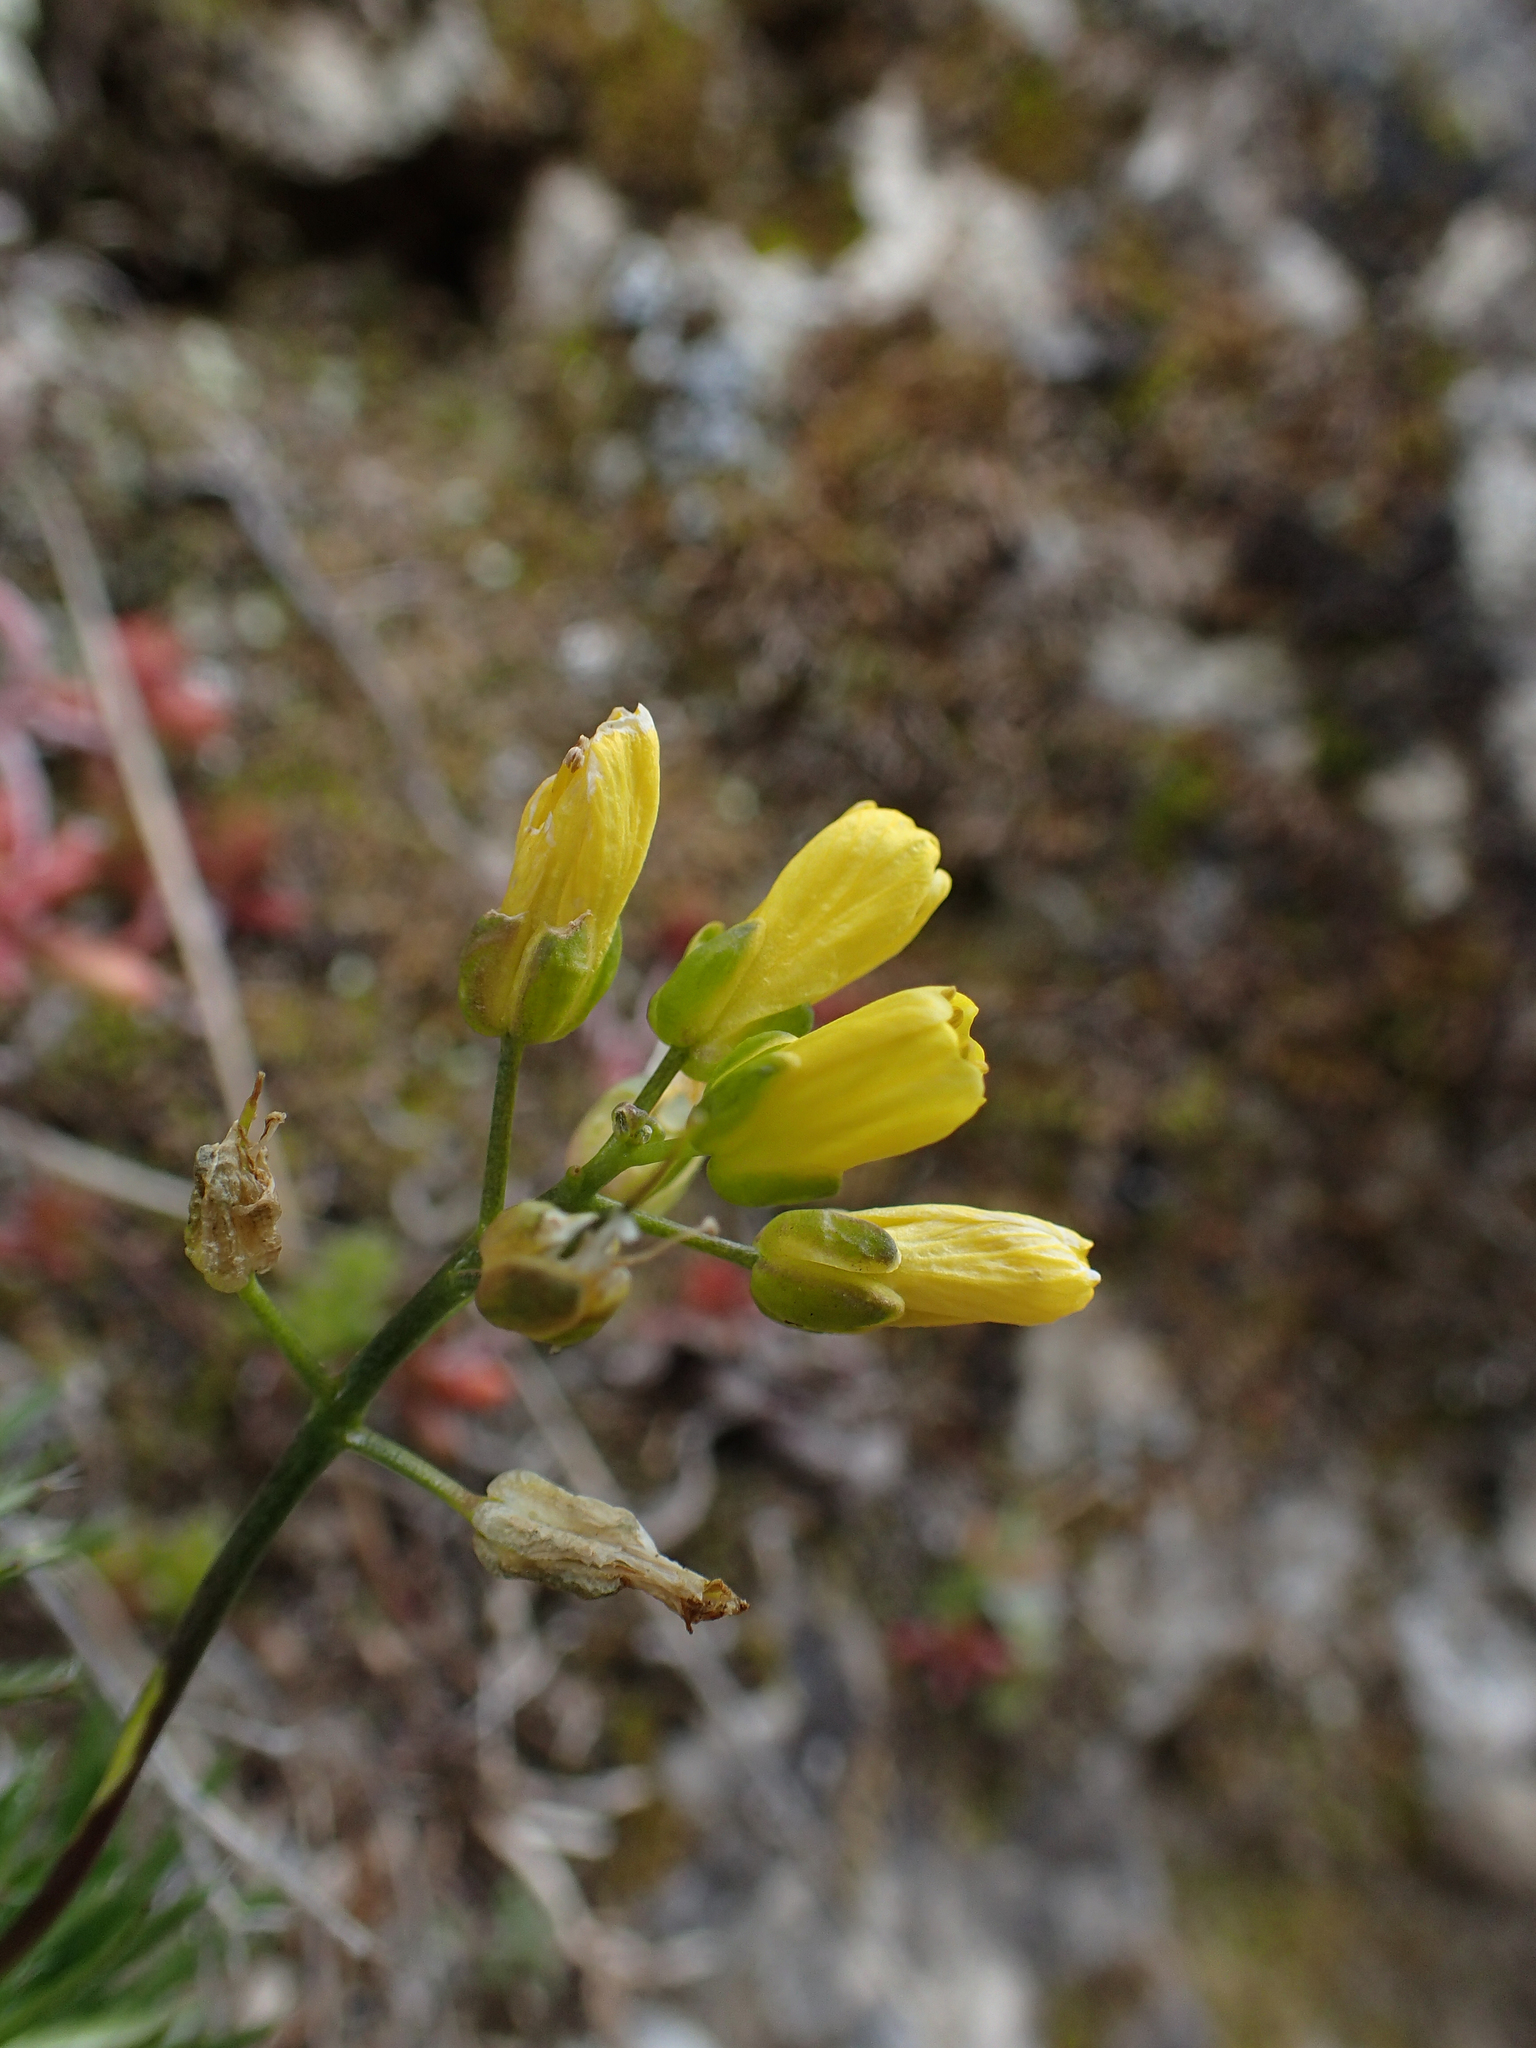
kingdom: Plantae
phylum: Tracheophyta
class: Magnoliopsida
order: Brassicales
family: Brassicaceae
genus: Draba
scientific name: Draba aizoides
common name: Yellow whitlowgrass
